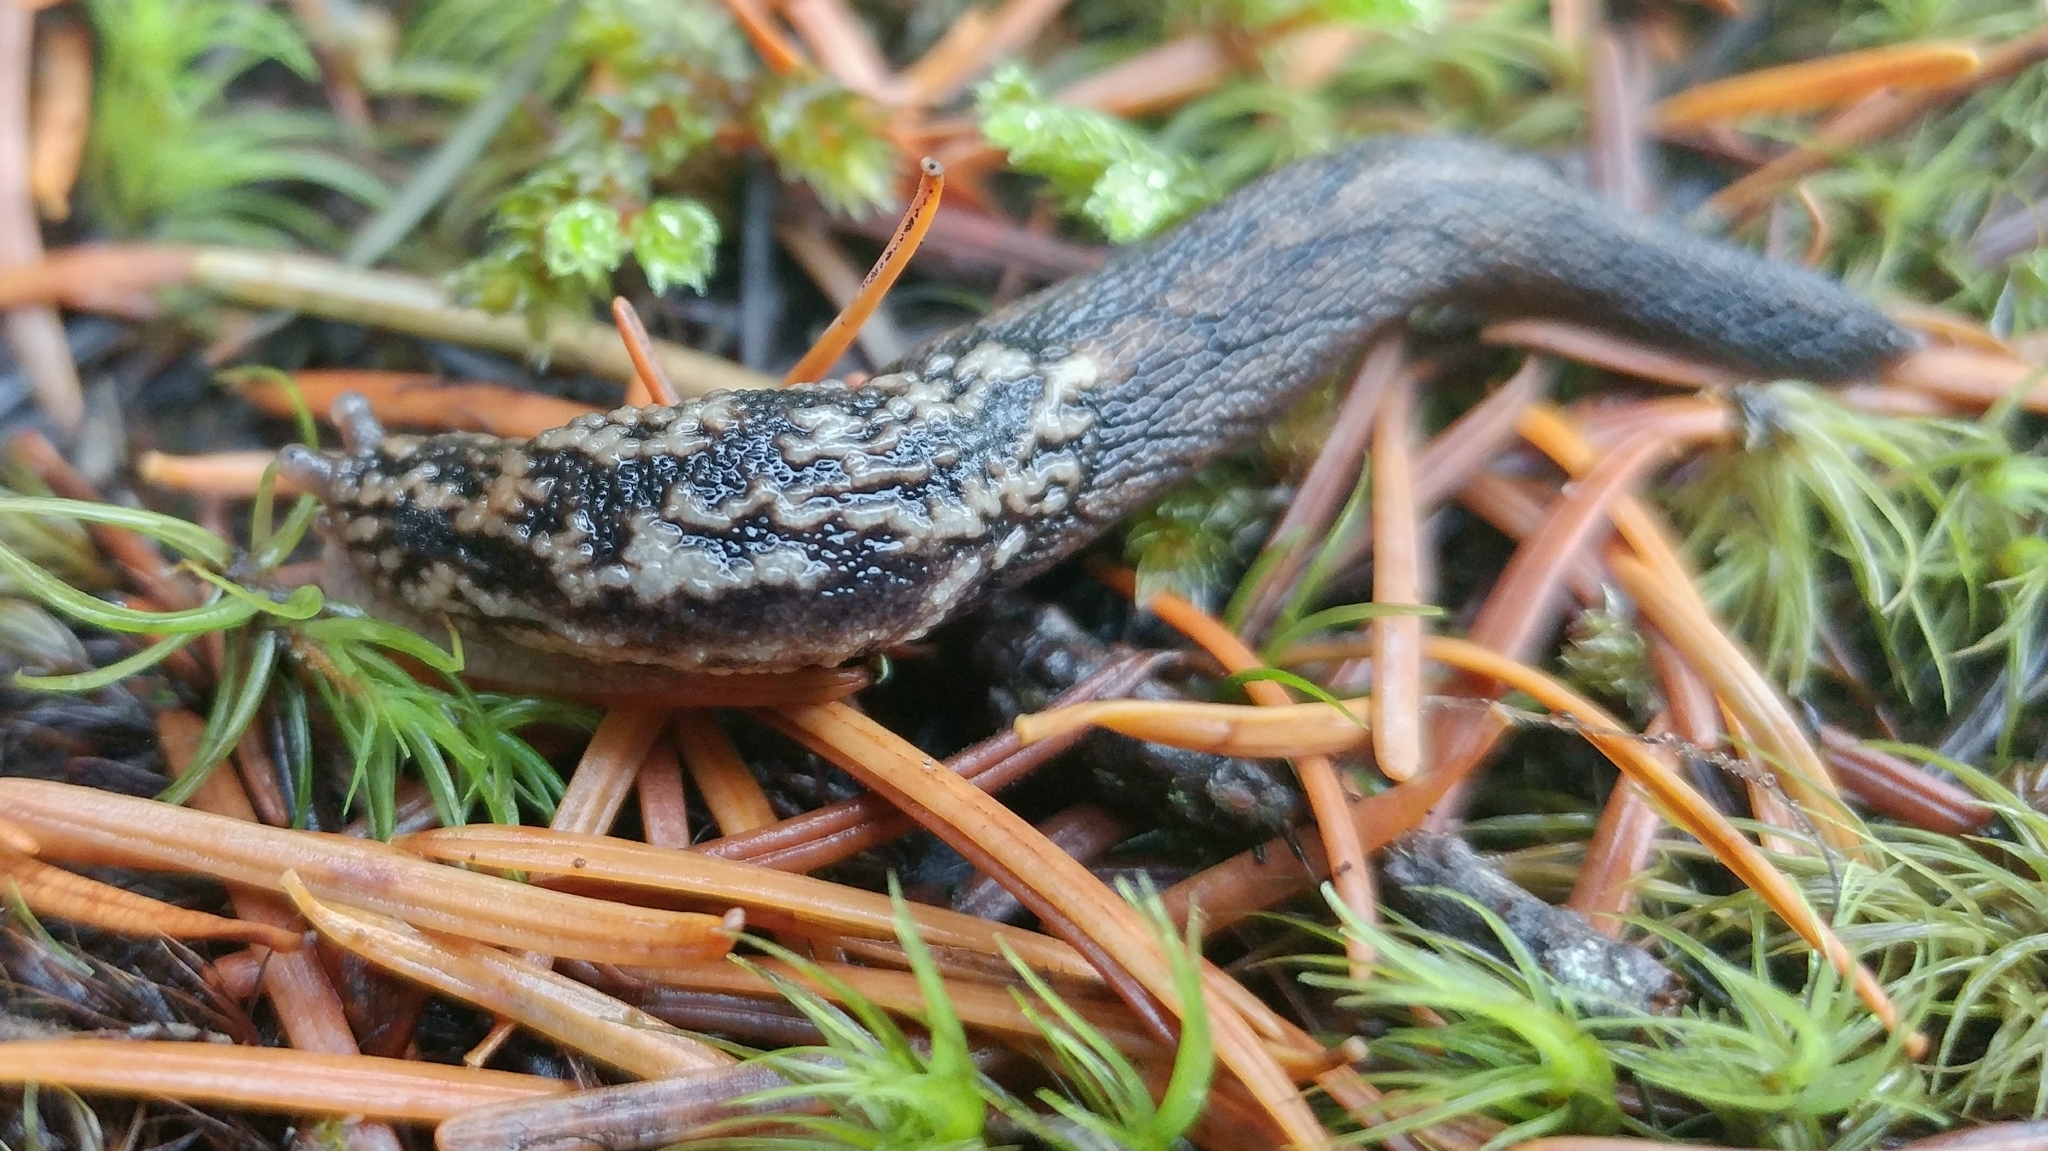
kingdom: Animalia
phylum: Mollusca
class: Gastropoda
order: Stylommatophora
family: Ariolimacidae
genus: Prophysaon
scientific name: Prophysaon andersonii
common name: Reticulate taildropper
